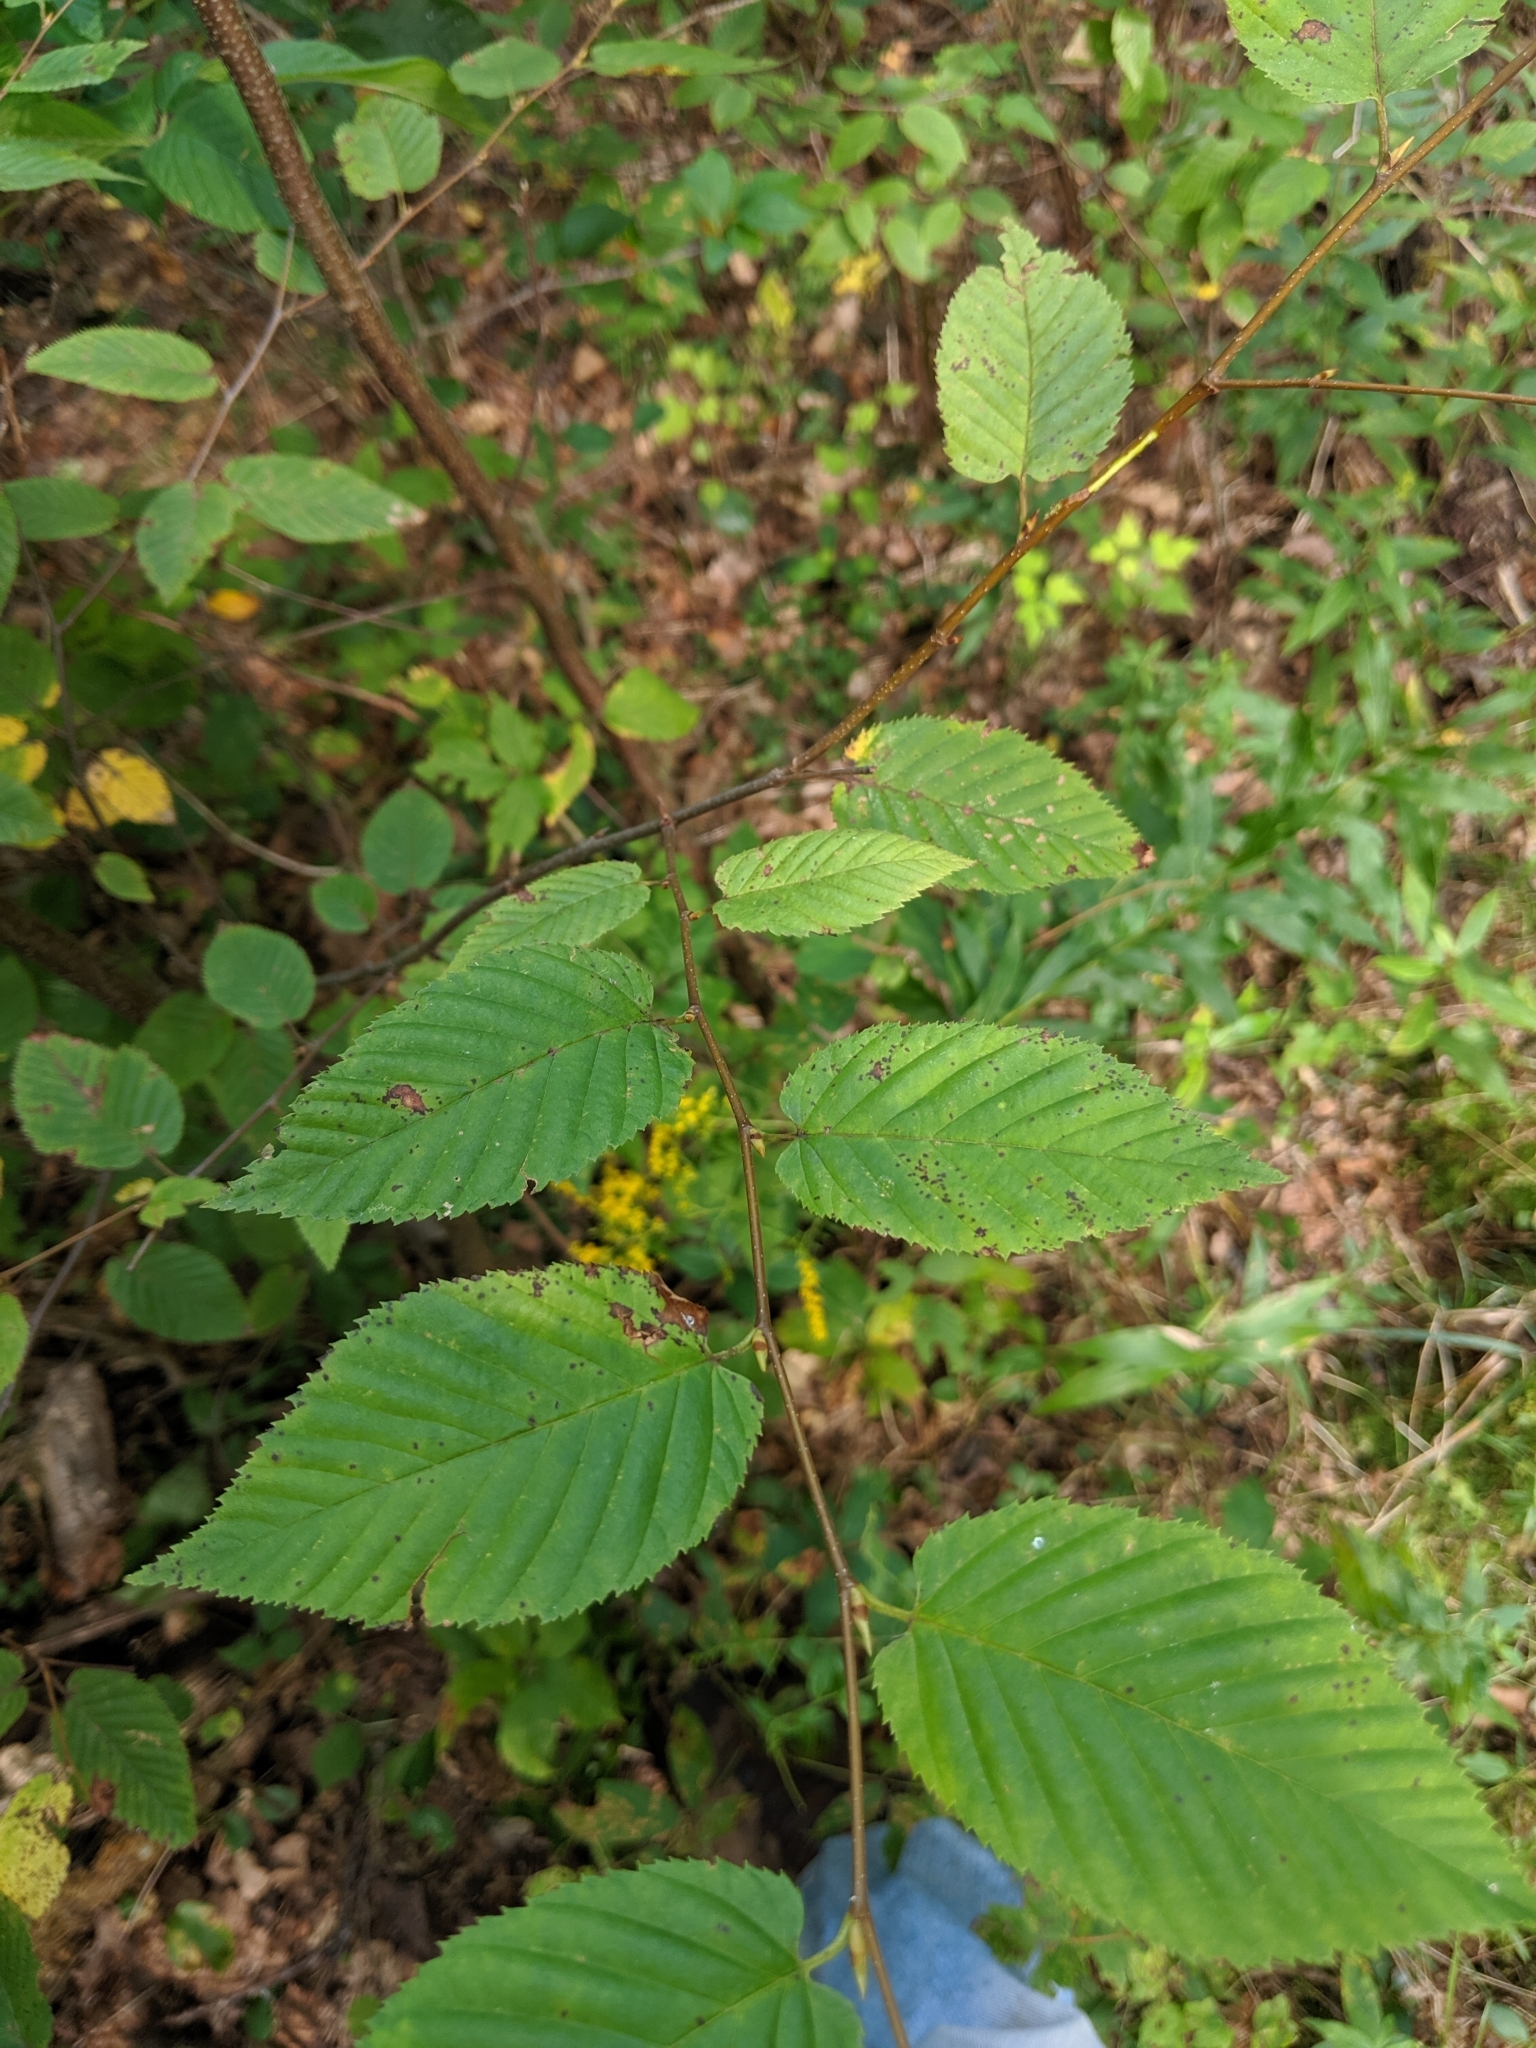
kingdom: Plantae
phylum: Tracheophyta
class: Magnoliopsida
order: Fagales
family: Betulaceae
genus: Betula
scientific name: Betula lenta
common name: Black birch
